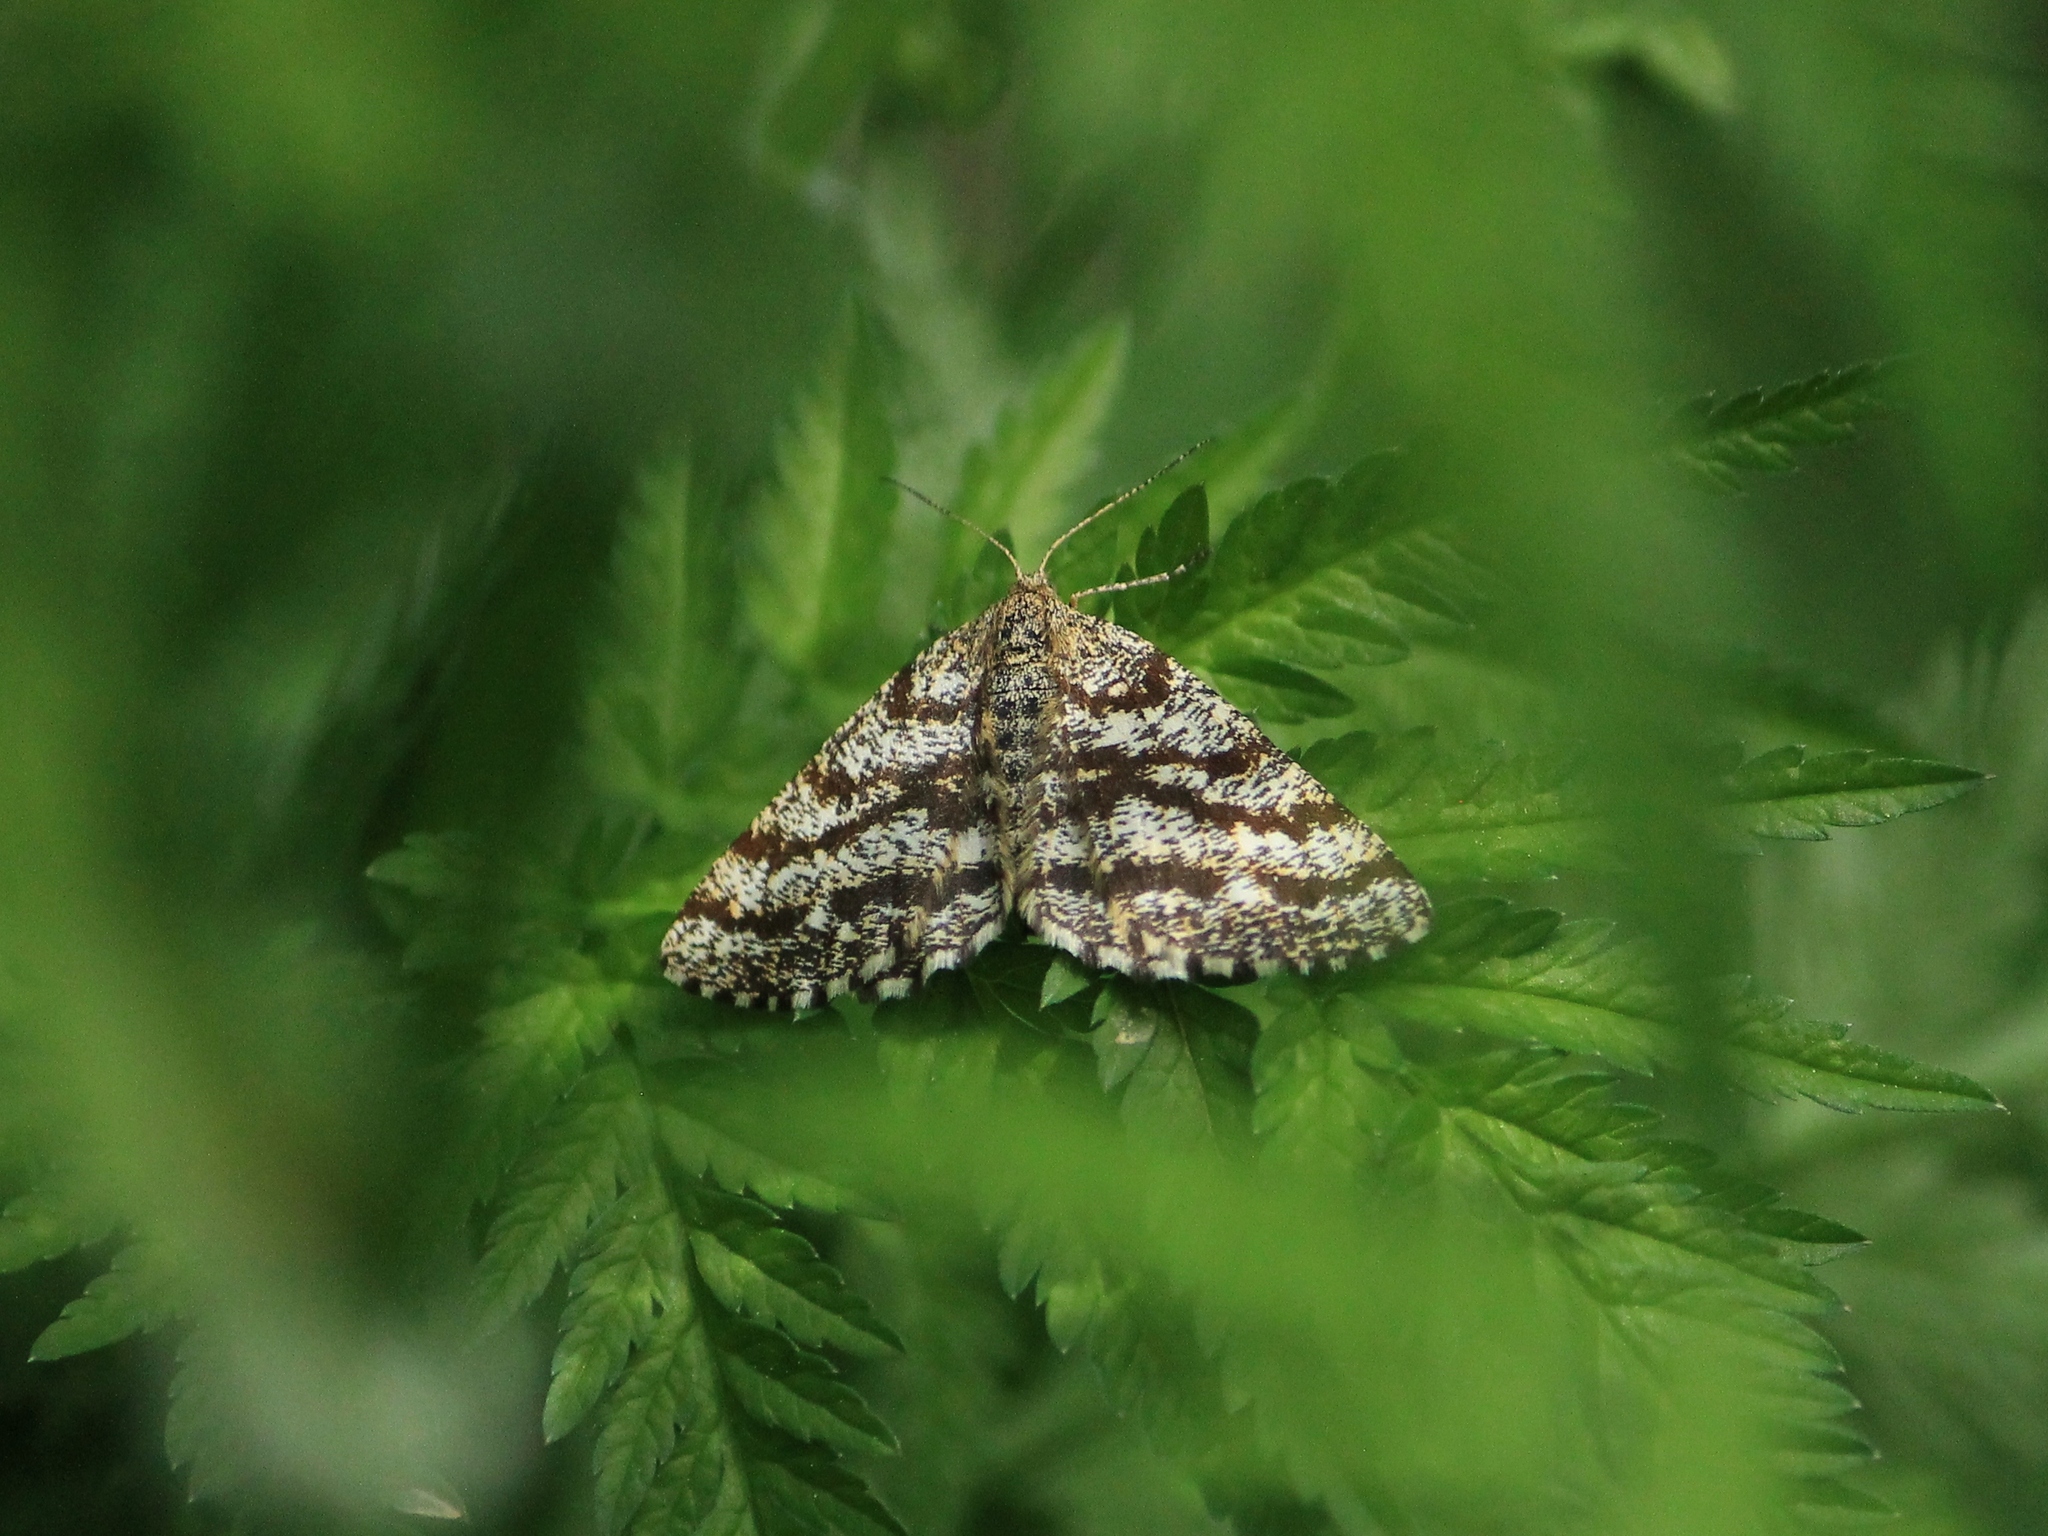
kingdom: Animalia
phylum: Arthropoda
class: Insecta
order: Lepidoptera
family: Geometridae
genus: Ematurga
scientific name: Ematurga atomaria
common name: Common heath
